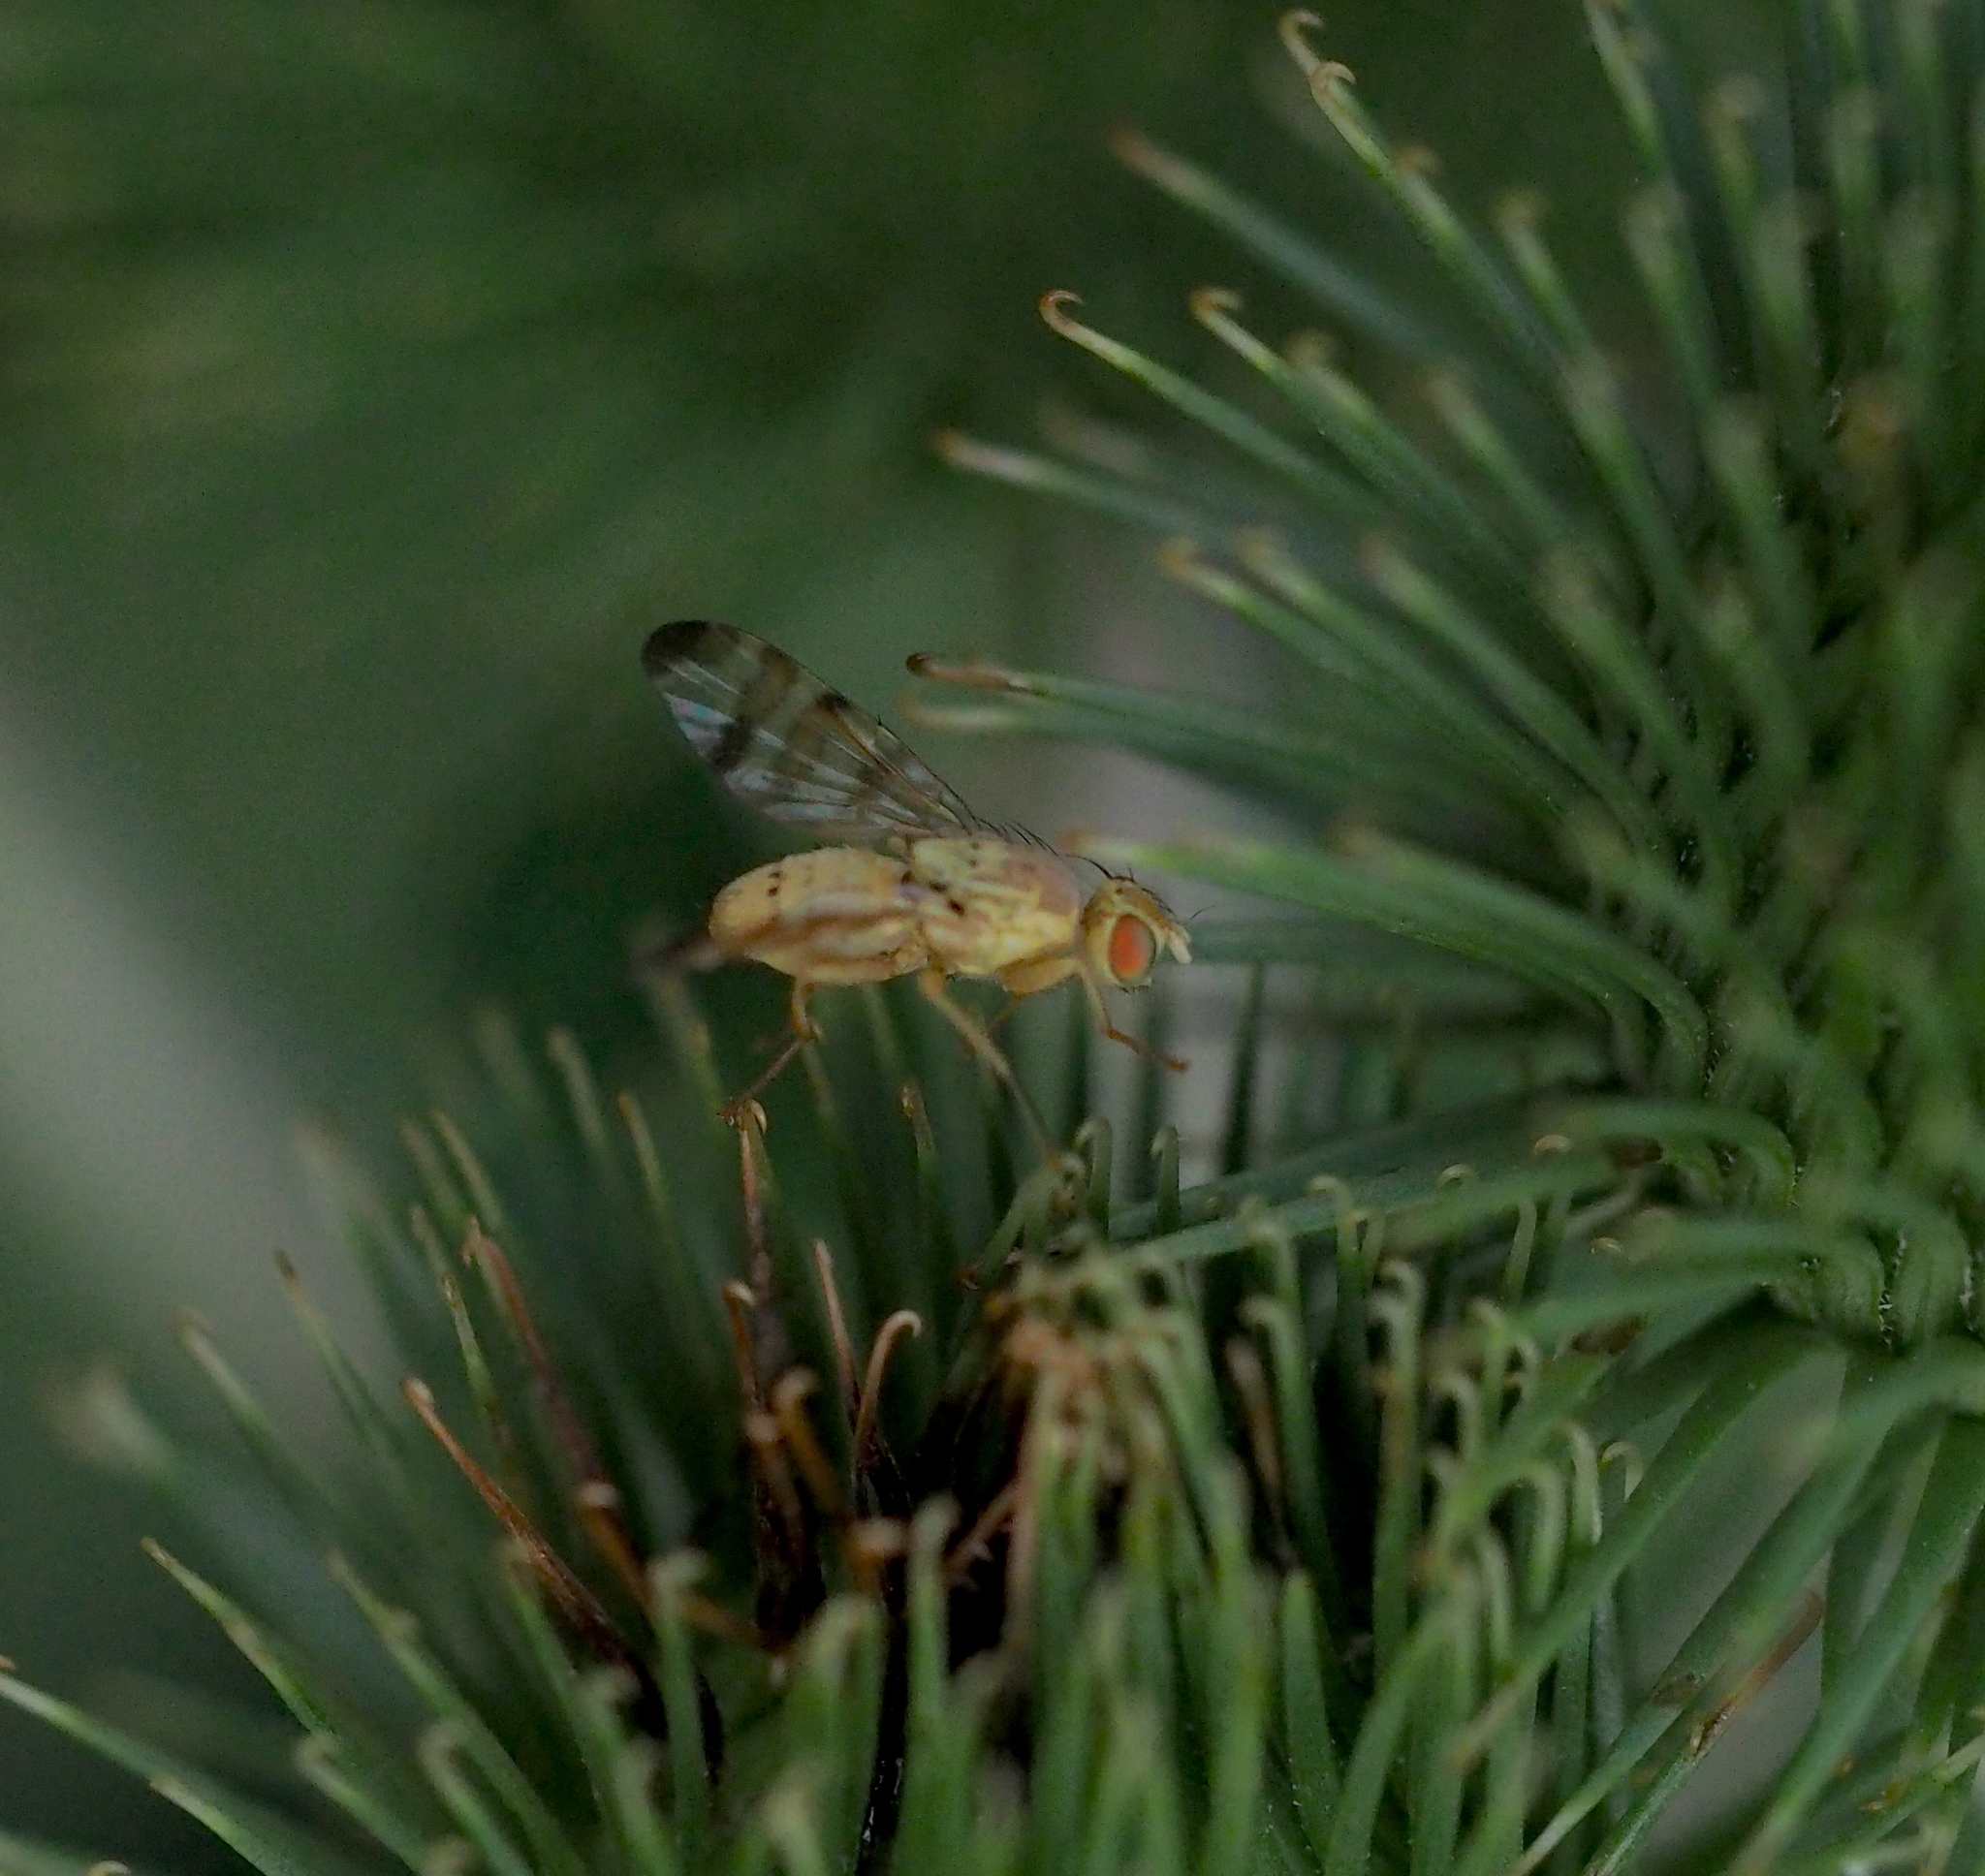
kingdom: Animalia
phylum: Arthropoda
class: Insecta
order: Diptera
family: Tephritidae
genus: Terellia
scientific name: Terellia tussilaginis
